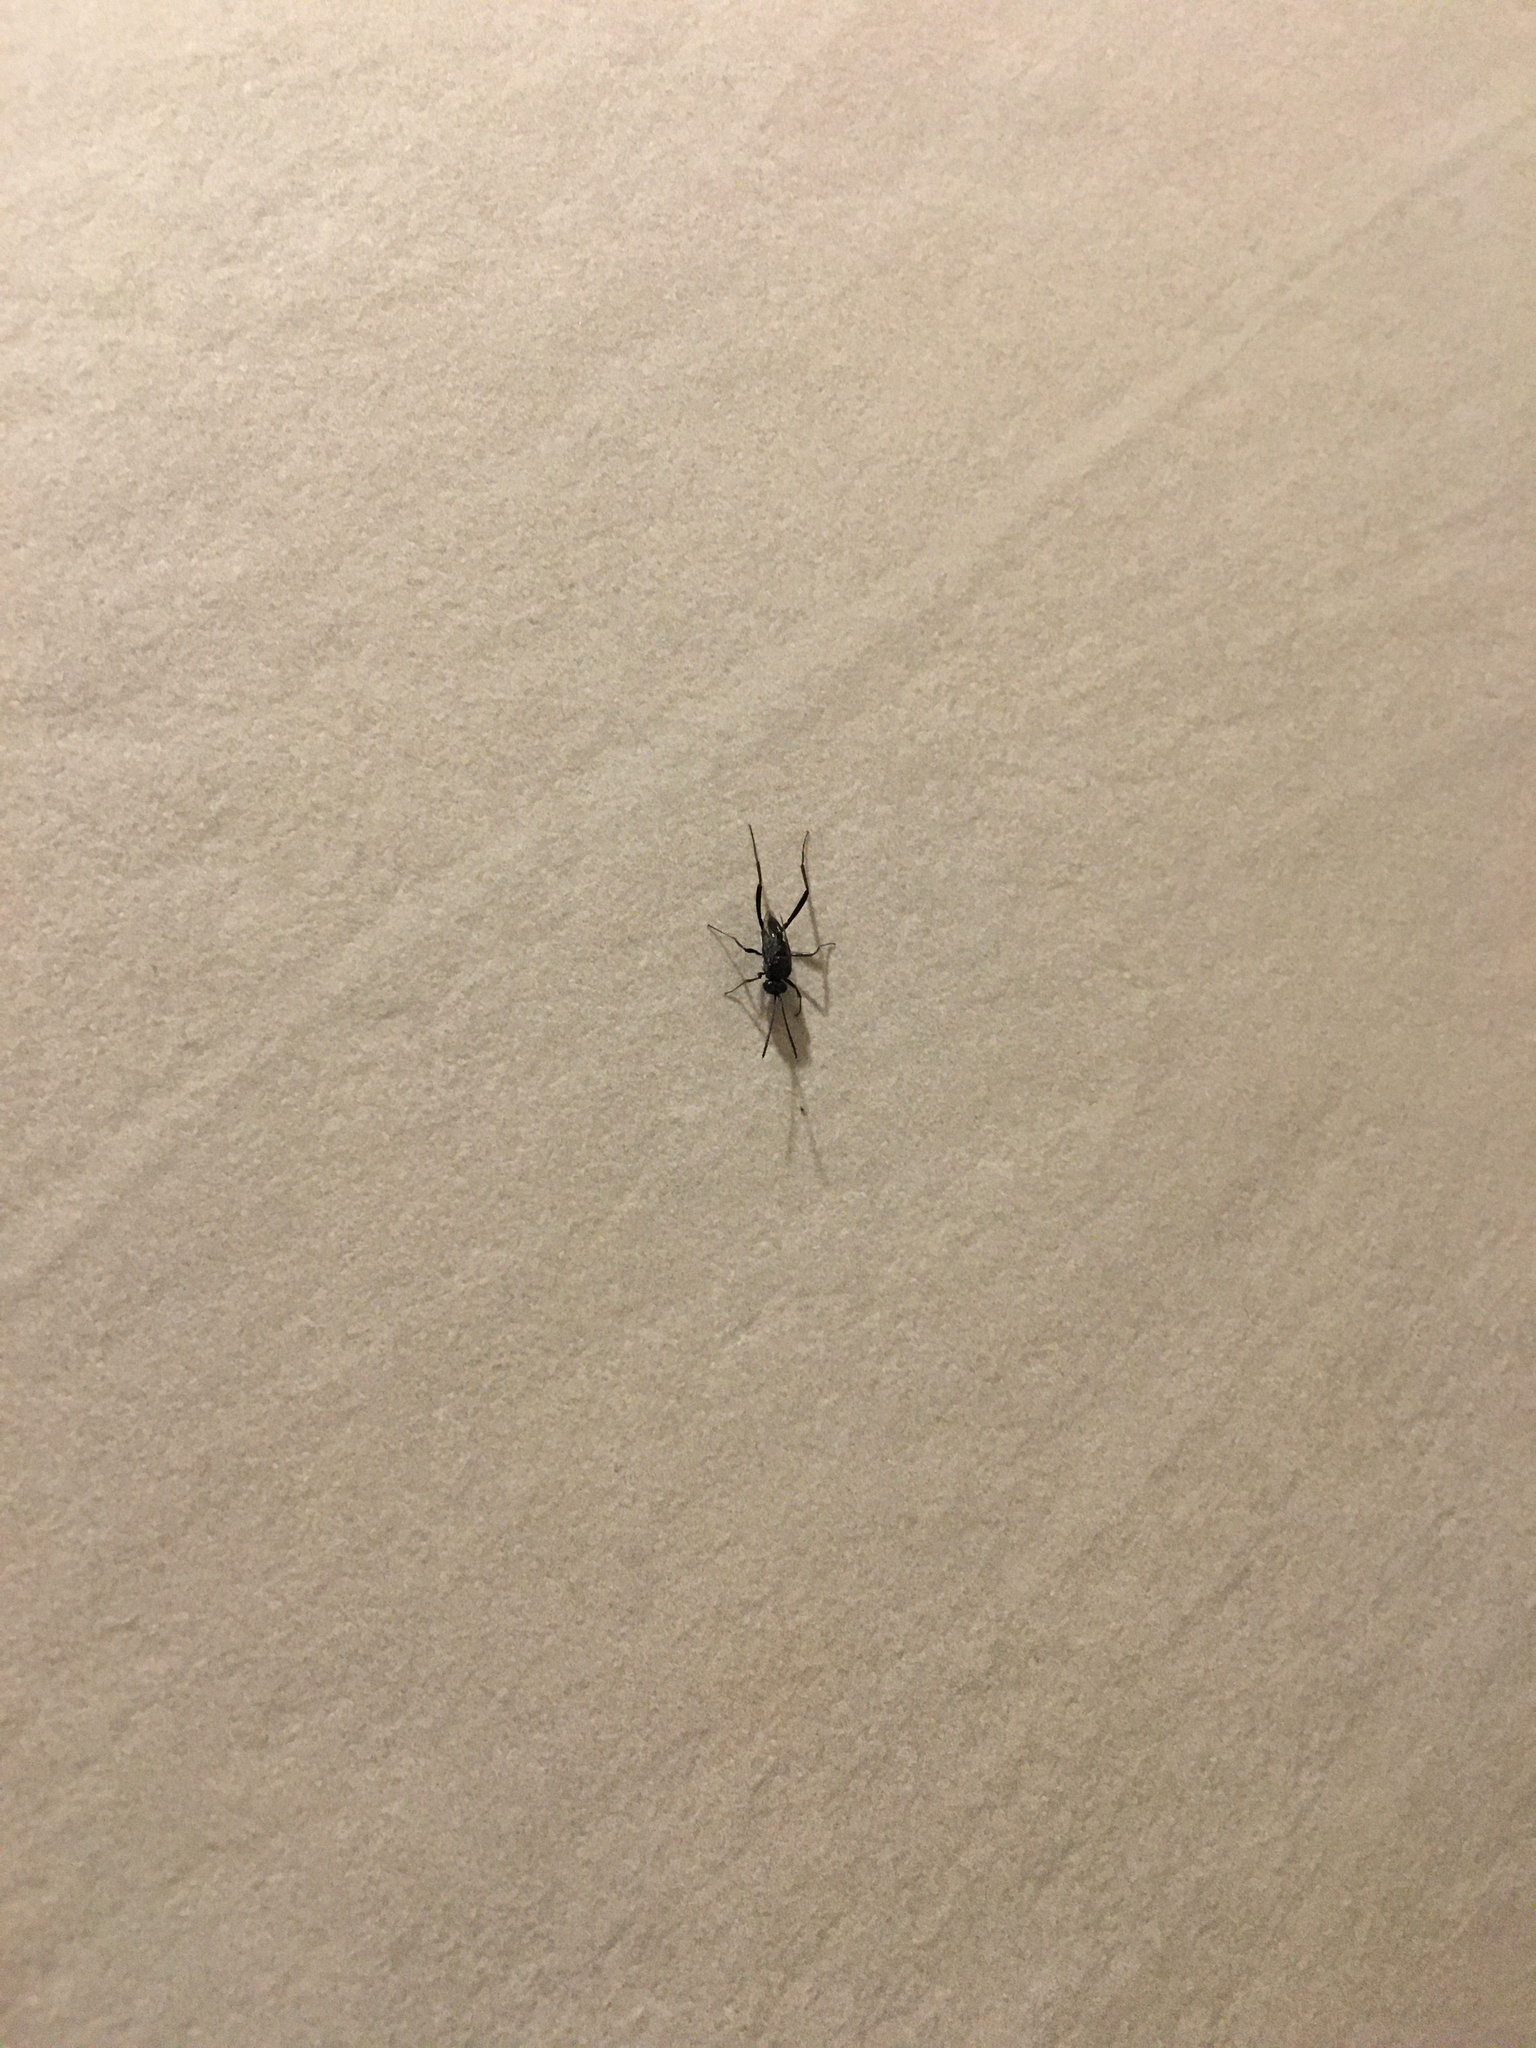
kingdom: Animalia
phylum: Arthropoda
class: Insecta
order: Hymenoptera
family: Evaniidae
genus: Evania
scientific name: Evania appendigaster
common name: Ensign wasp
